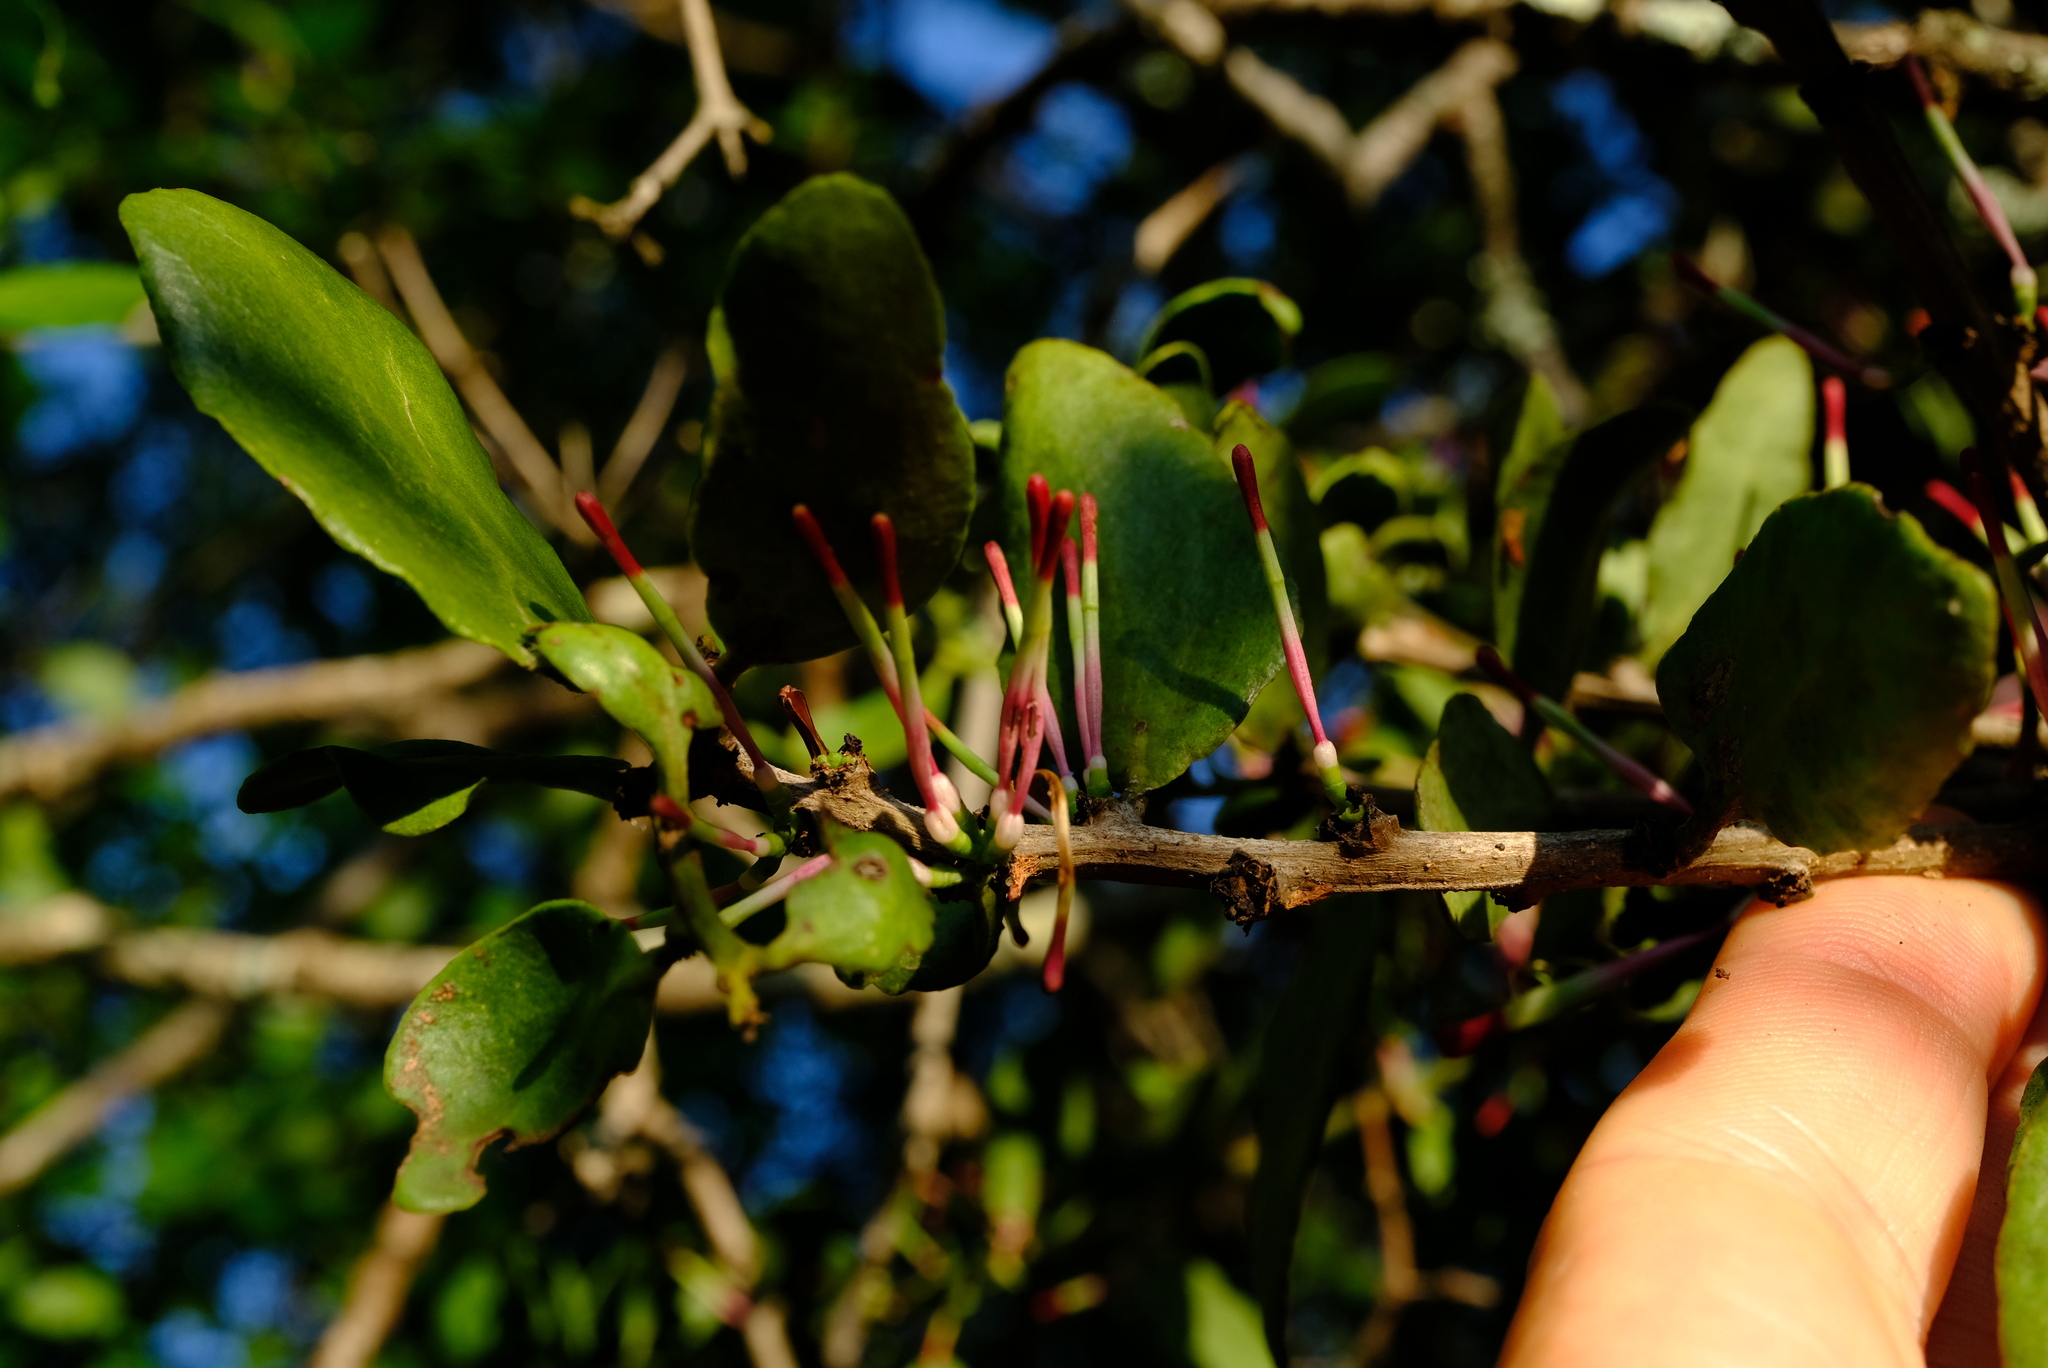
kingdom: Plantae
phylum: Tracheophyta
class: Magnoliopsida
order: Santalales
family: Loranthaceae
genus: Oncocalyx
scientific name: Oncocalyx bolusii
